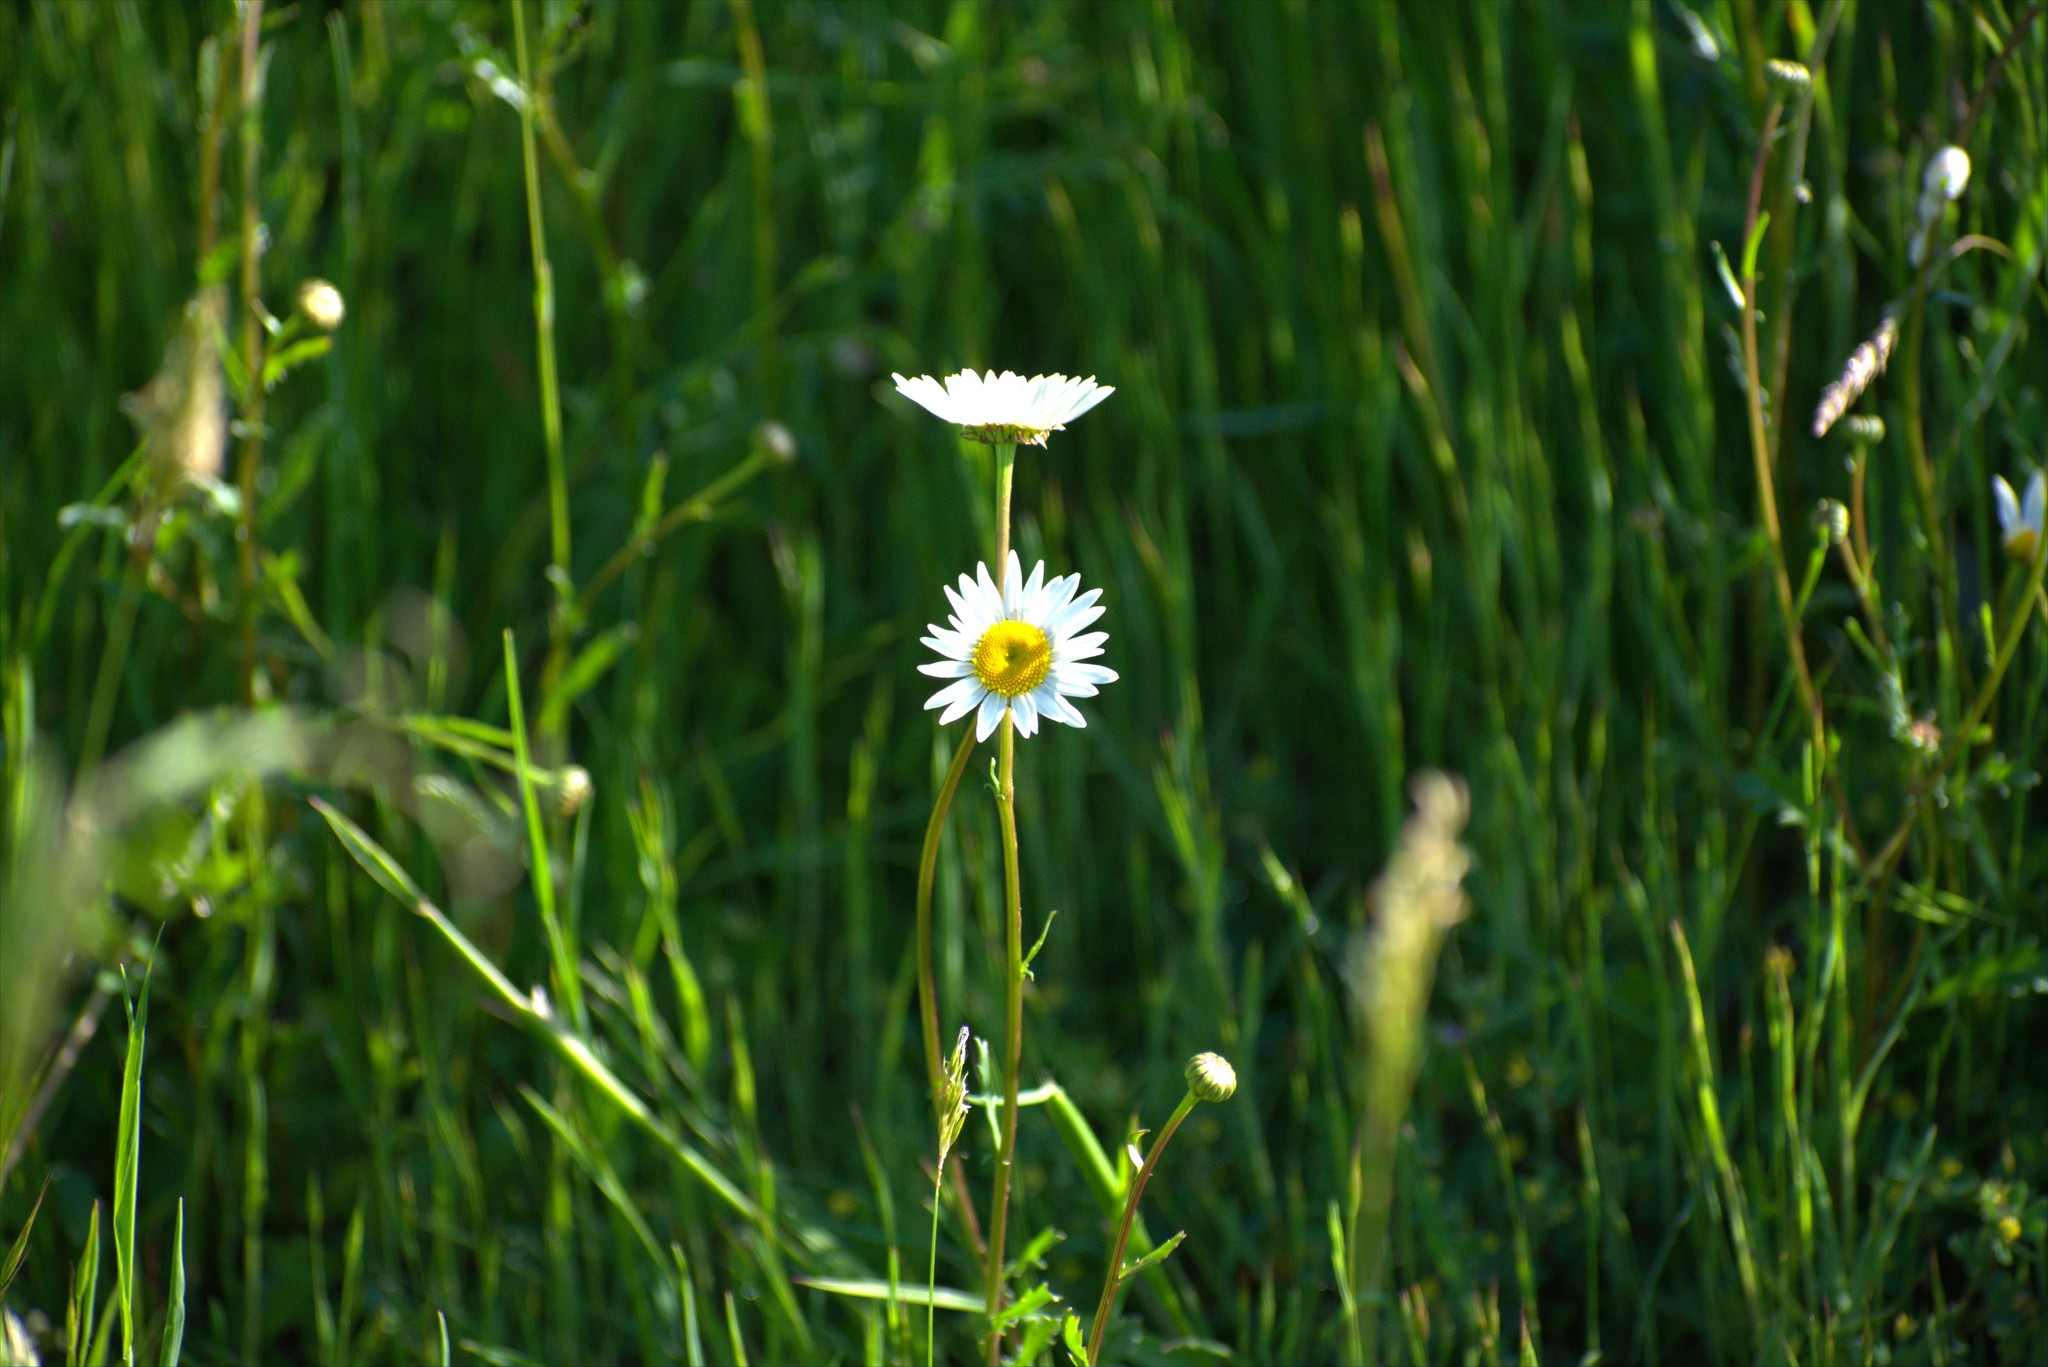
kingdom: Plantae
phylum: Tracheophyta
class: Magnoliopsida
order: Asterales
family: Asteraceae
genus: Leucanthemum
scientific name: Leucanthemum vulgare
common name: Oxeye daisy
